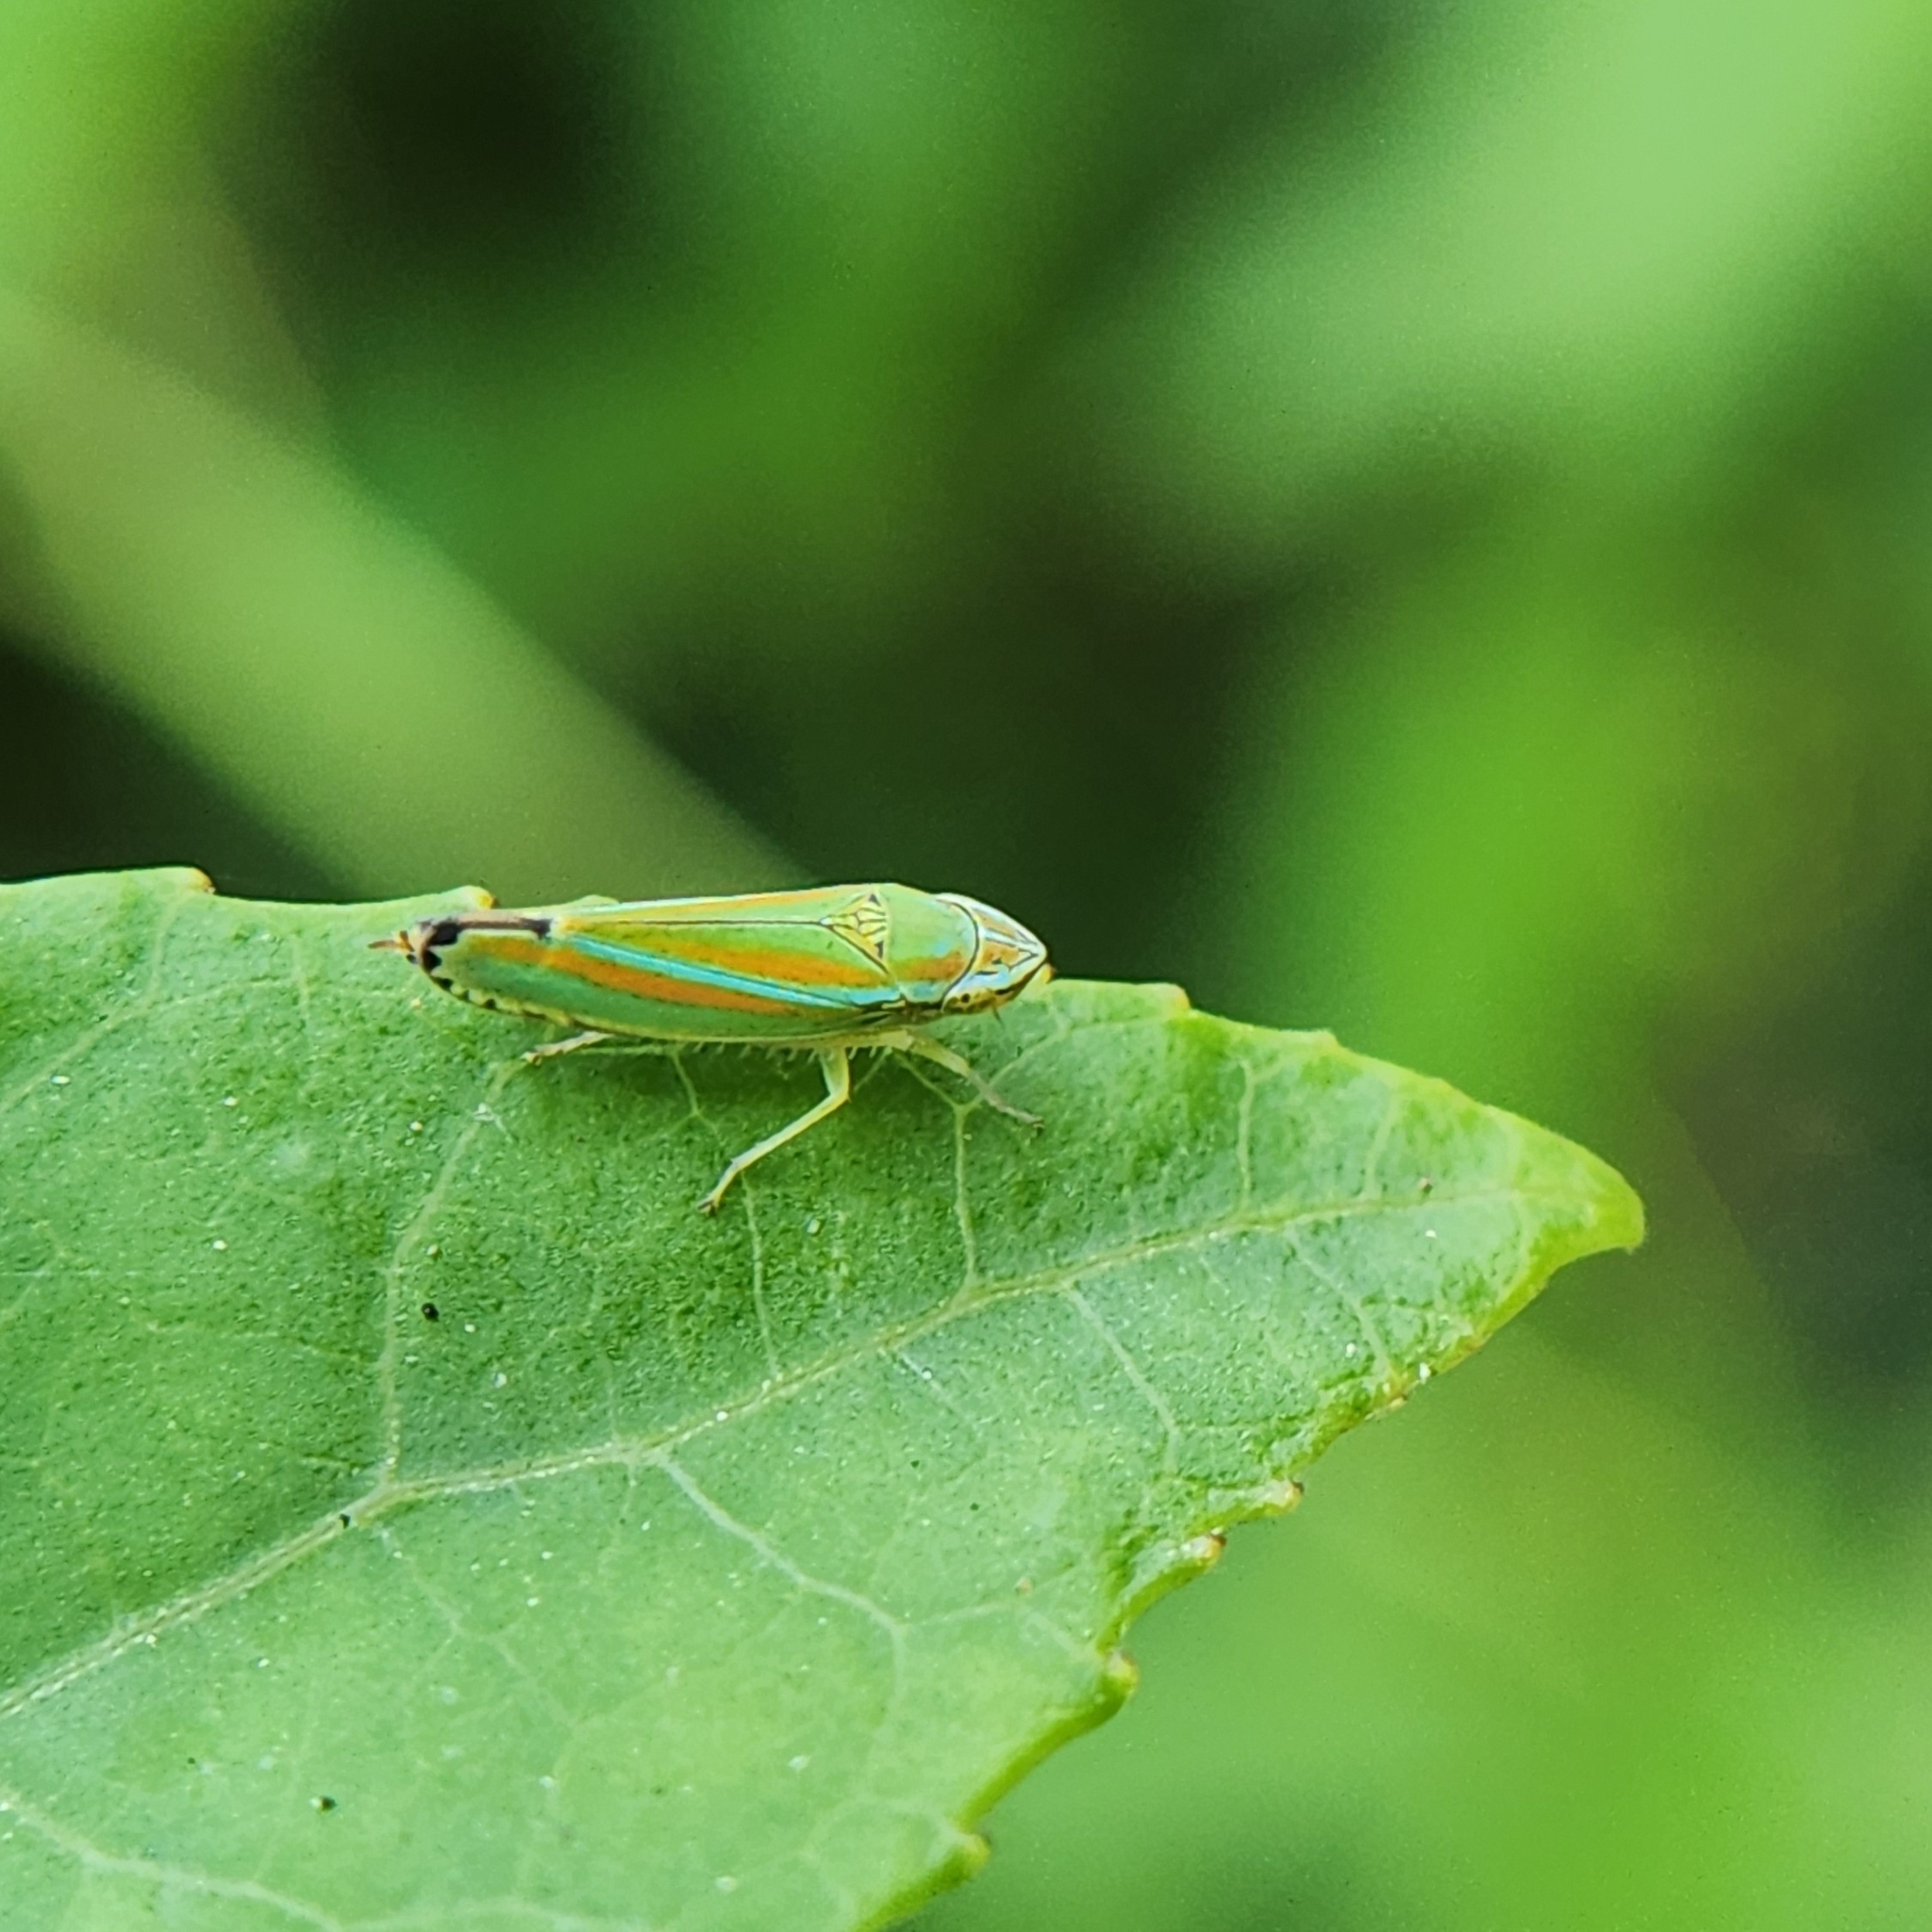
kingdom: Animalia
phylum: Arthropoda
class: Insecta
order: Hemiptera
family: Cicadellidae
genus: Graphocephala
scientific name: Graphocephala versuta
